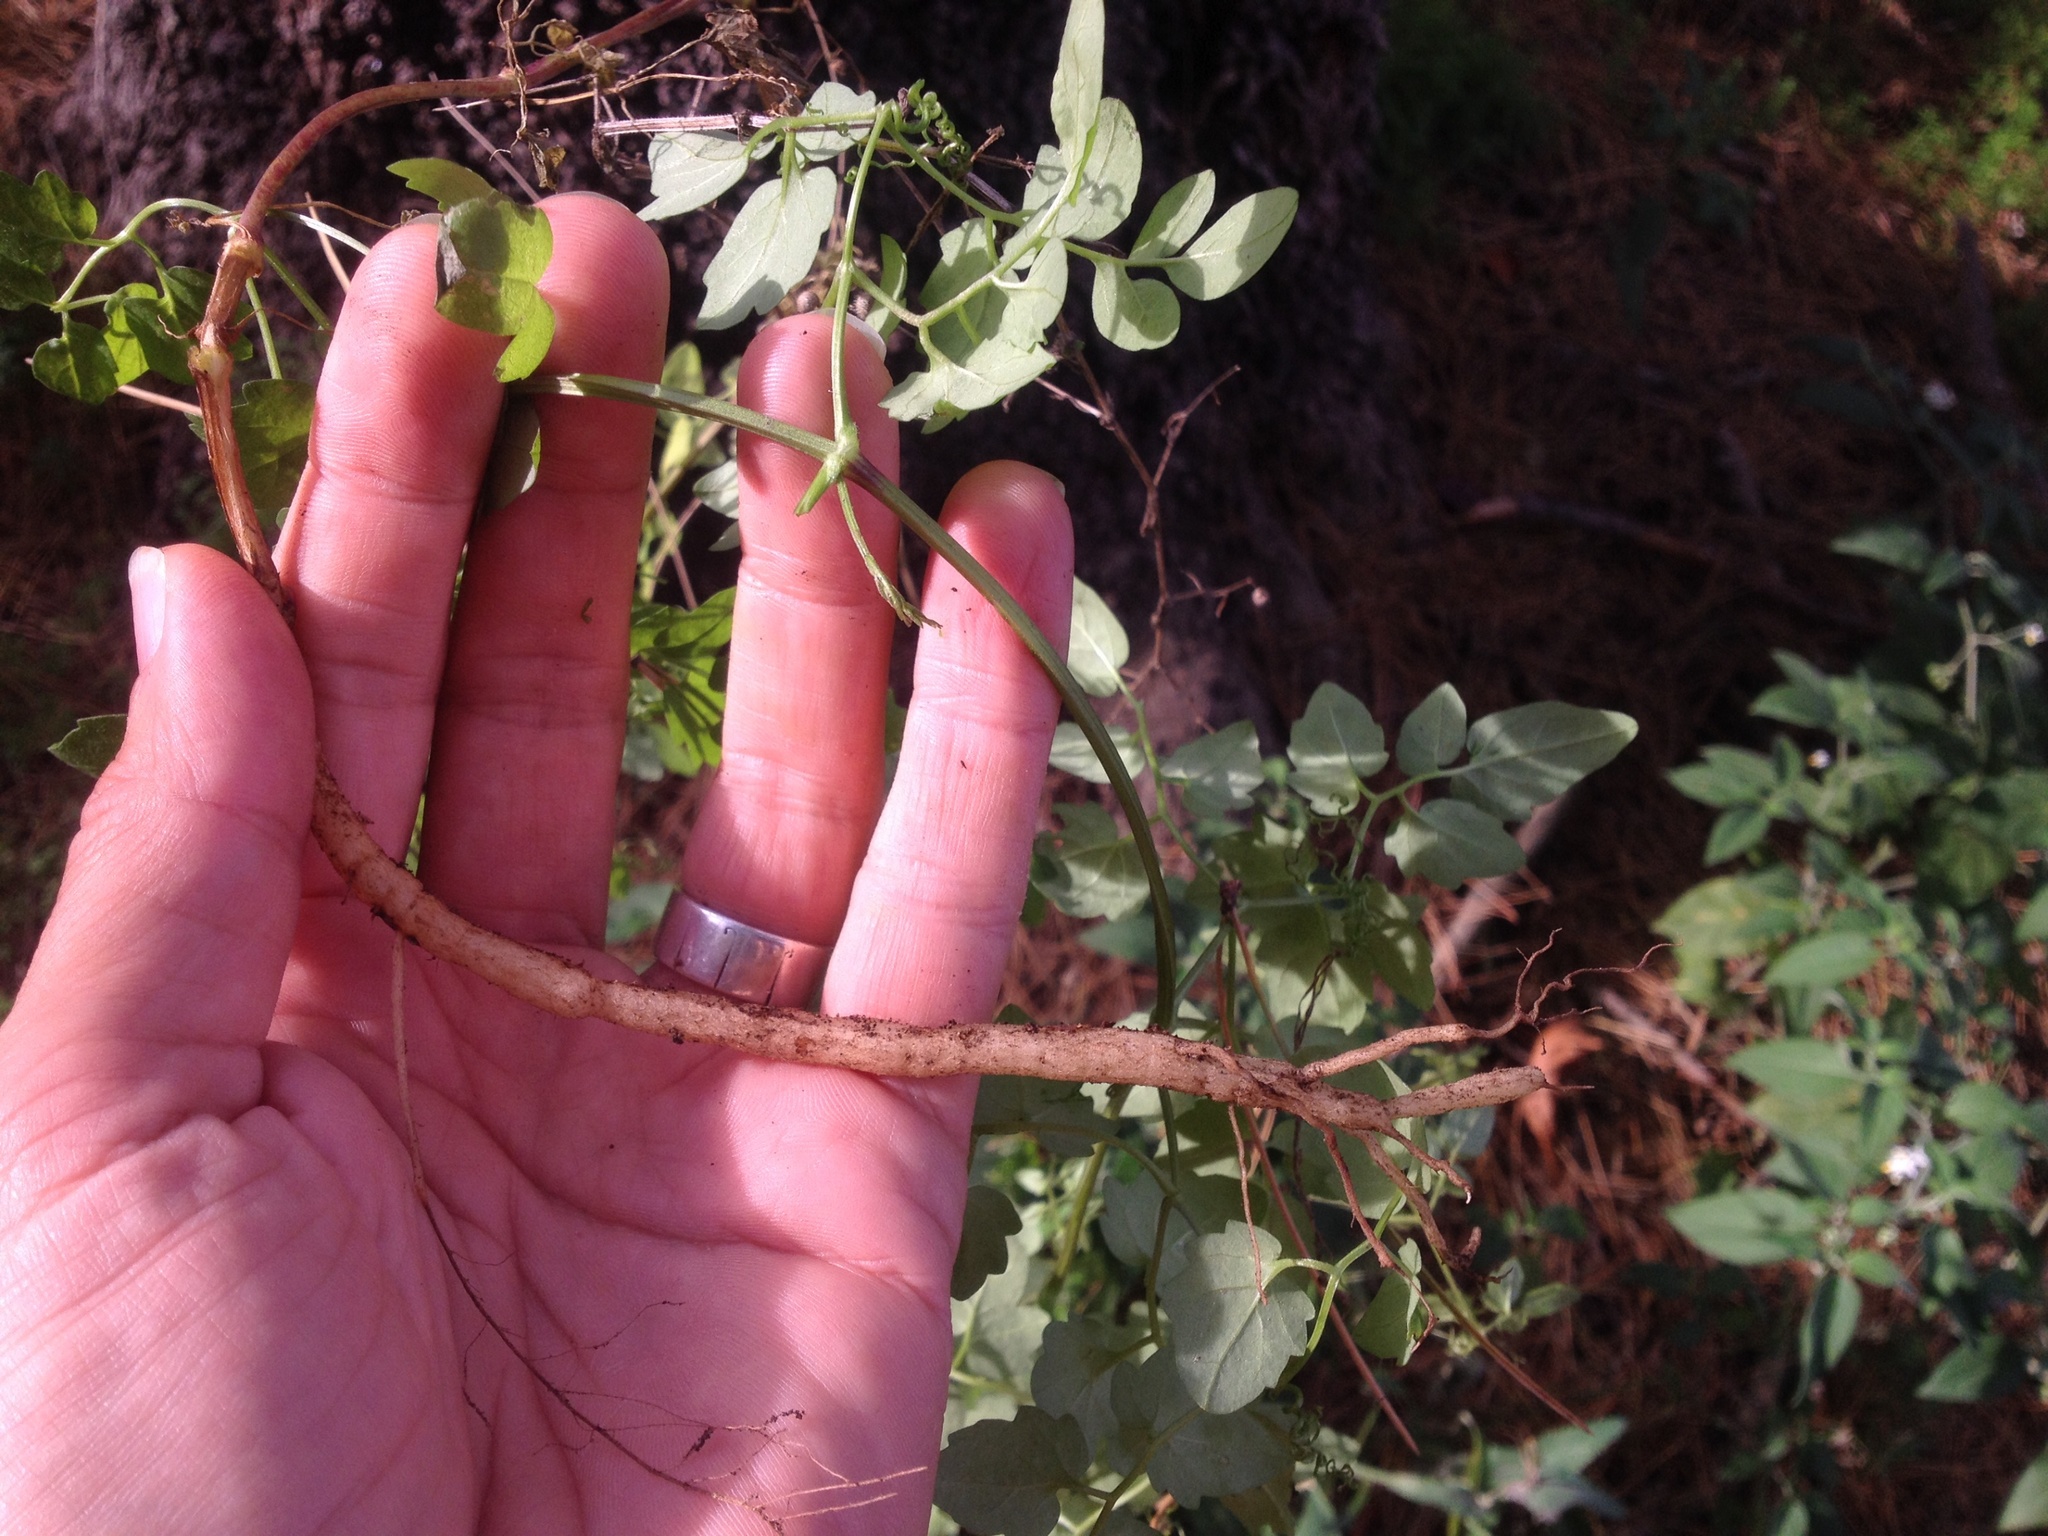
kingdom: Plantae
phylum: Tracheophyta
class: Magnoliopsida
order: Lamiales
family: Bignoniaceae
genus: Eccremocarpus
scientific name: Eccremocarpus scaber
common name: Chilean glory-flower
